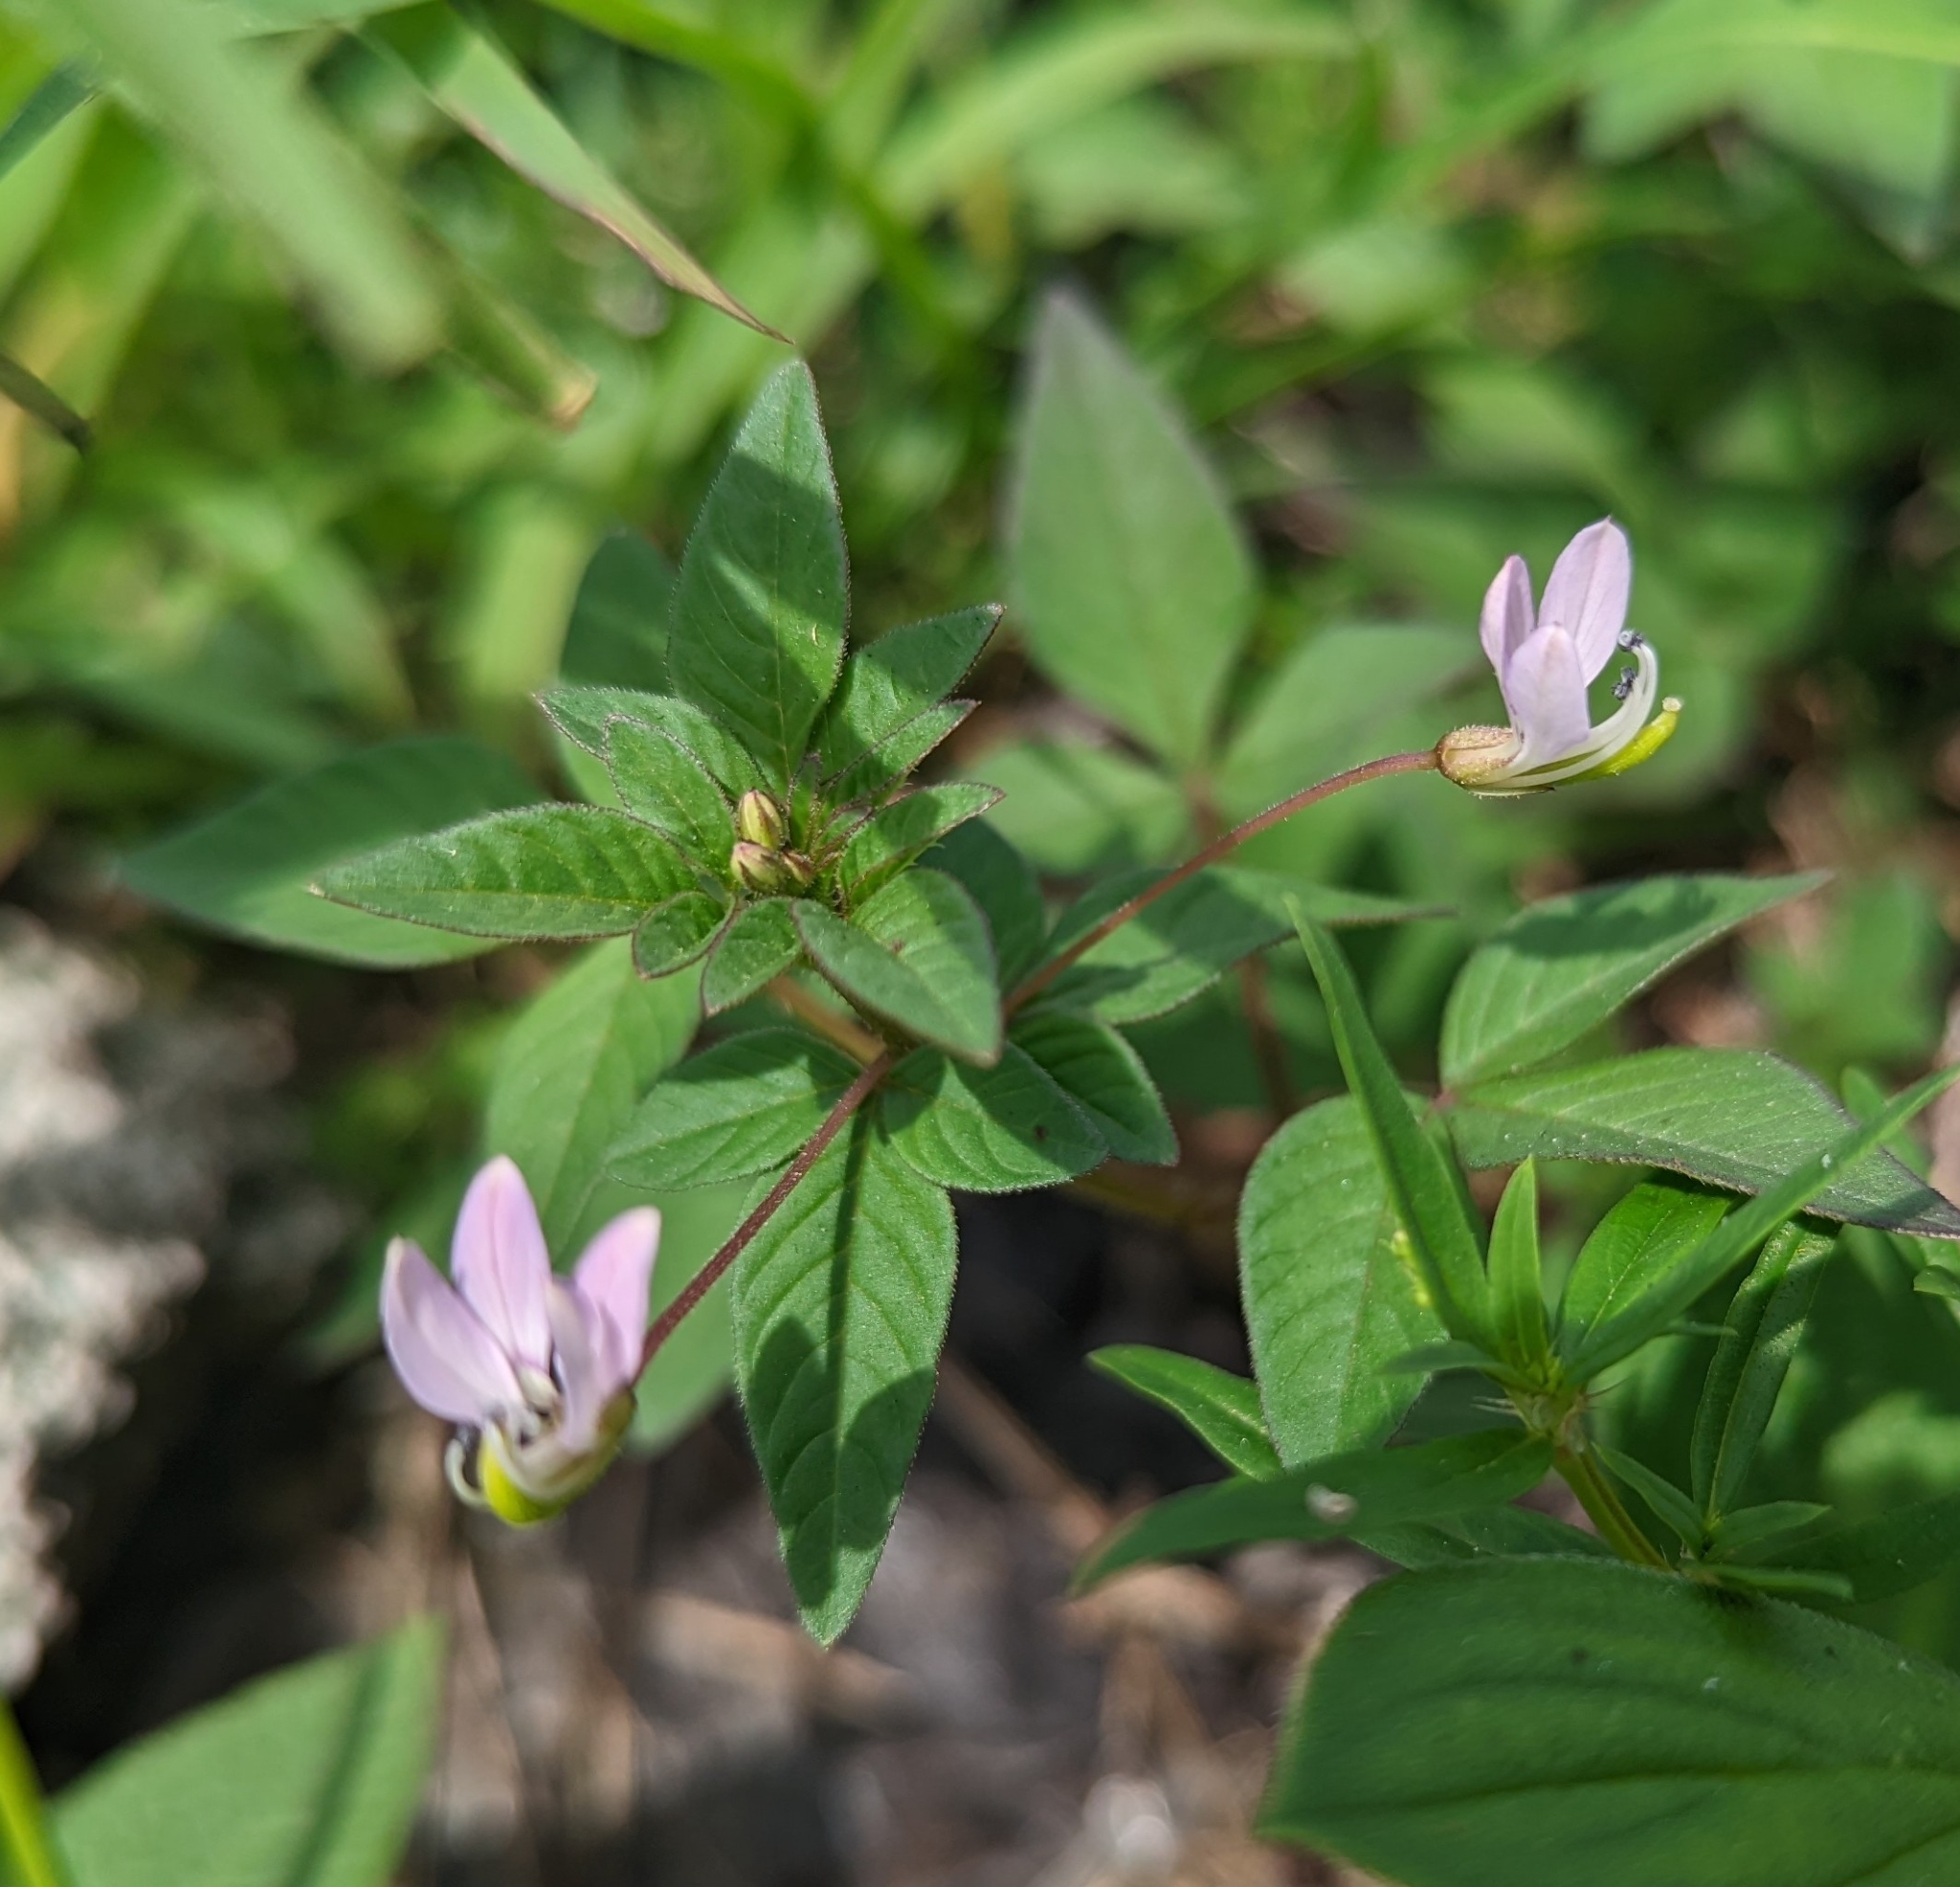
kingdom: Plantae
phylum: Tracheophyta
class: Magnoliopsida
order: Brassicales
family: Cleomaceae
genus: Sieruela
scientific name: Sieruela rutidosperma
